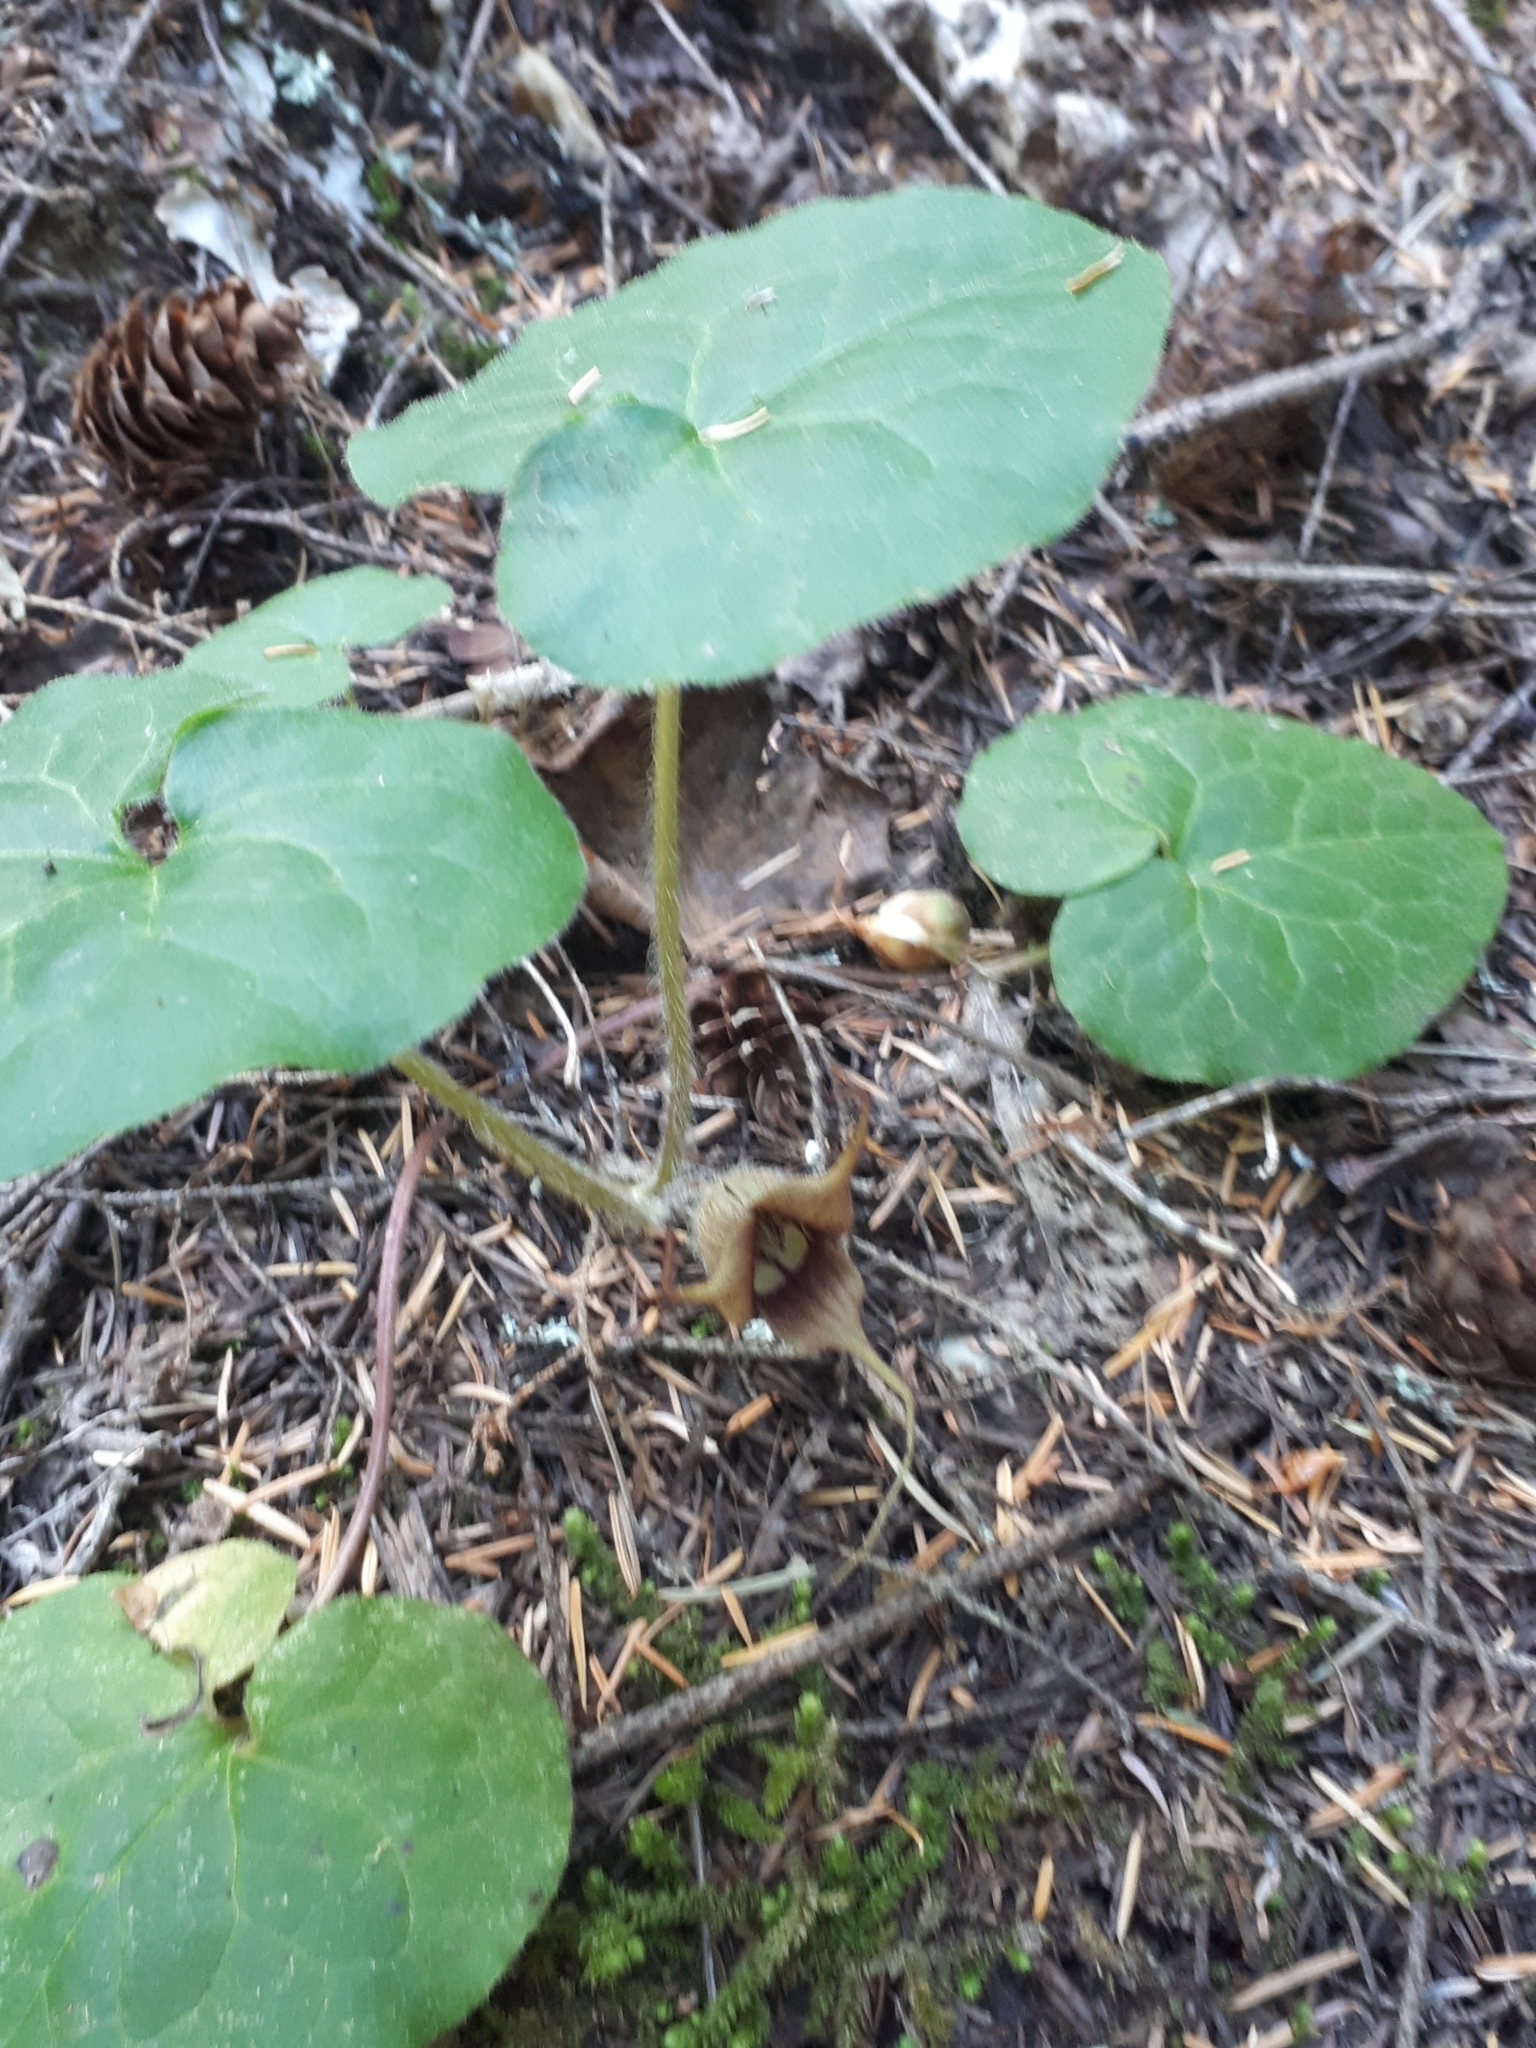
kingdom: Plantae
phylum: Tracheophyta
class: Magnoliopsida
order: Piperales
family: Aristolochiaceae
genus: Asarum
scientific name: Asarum caudatum
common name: Wild ginger
